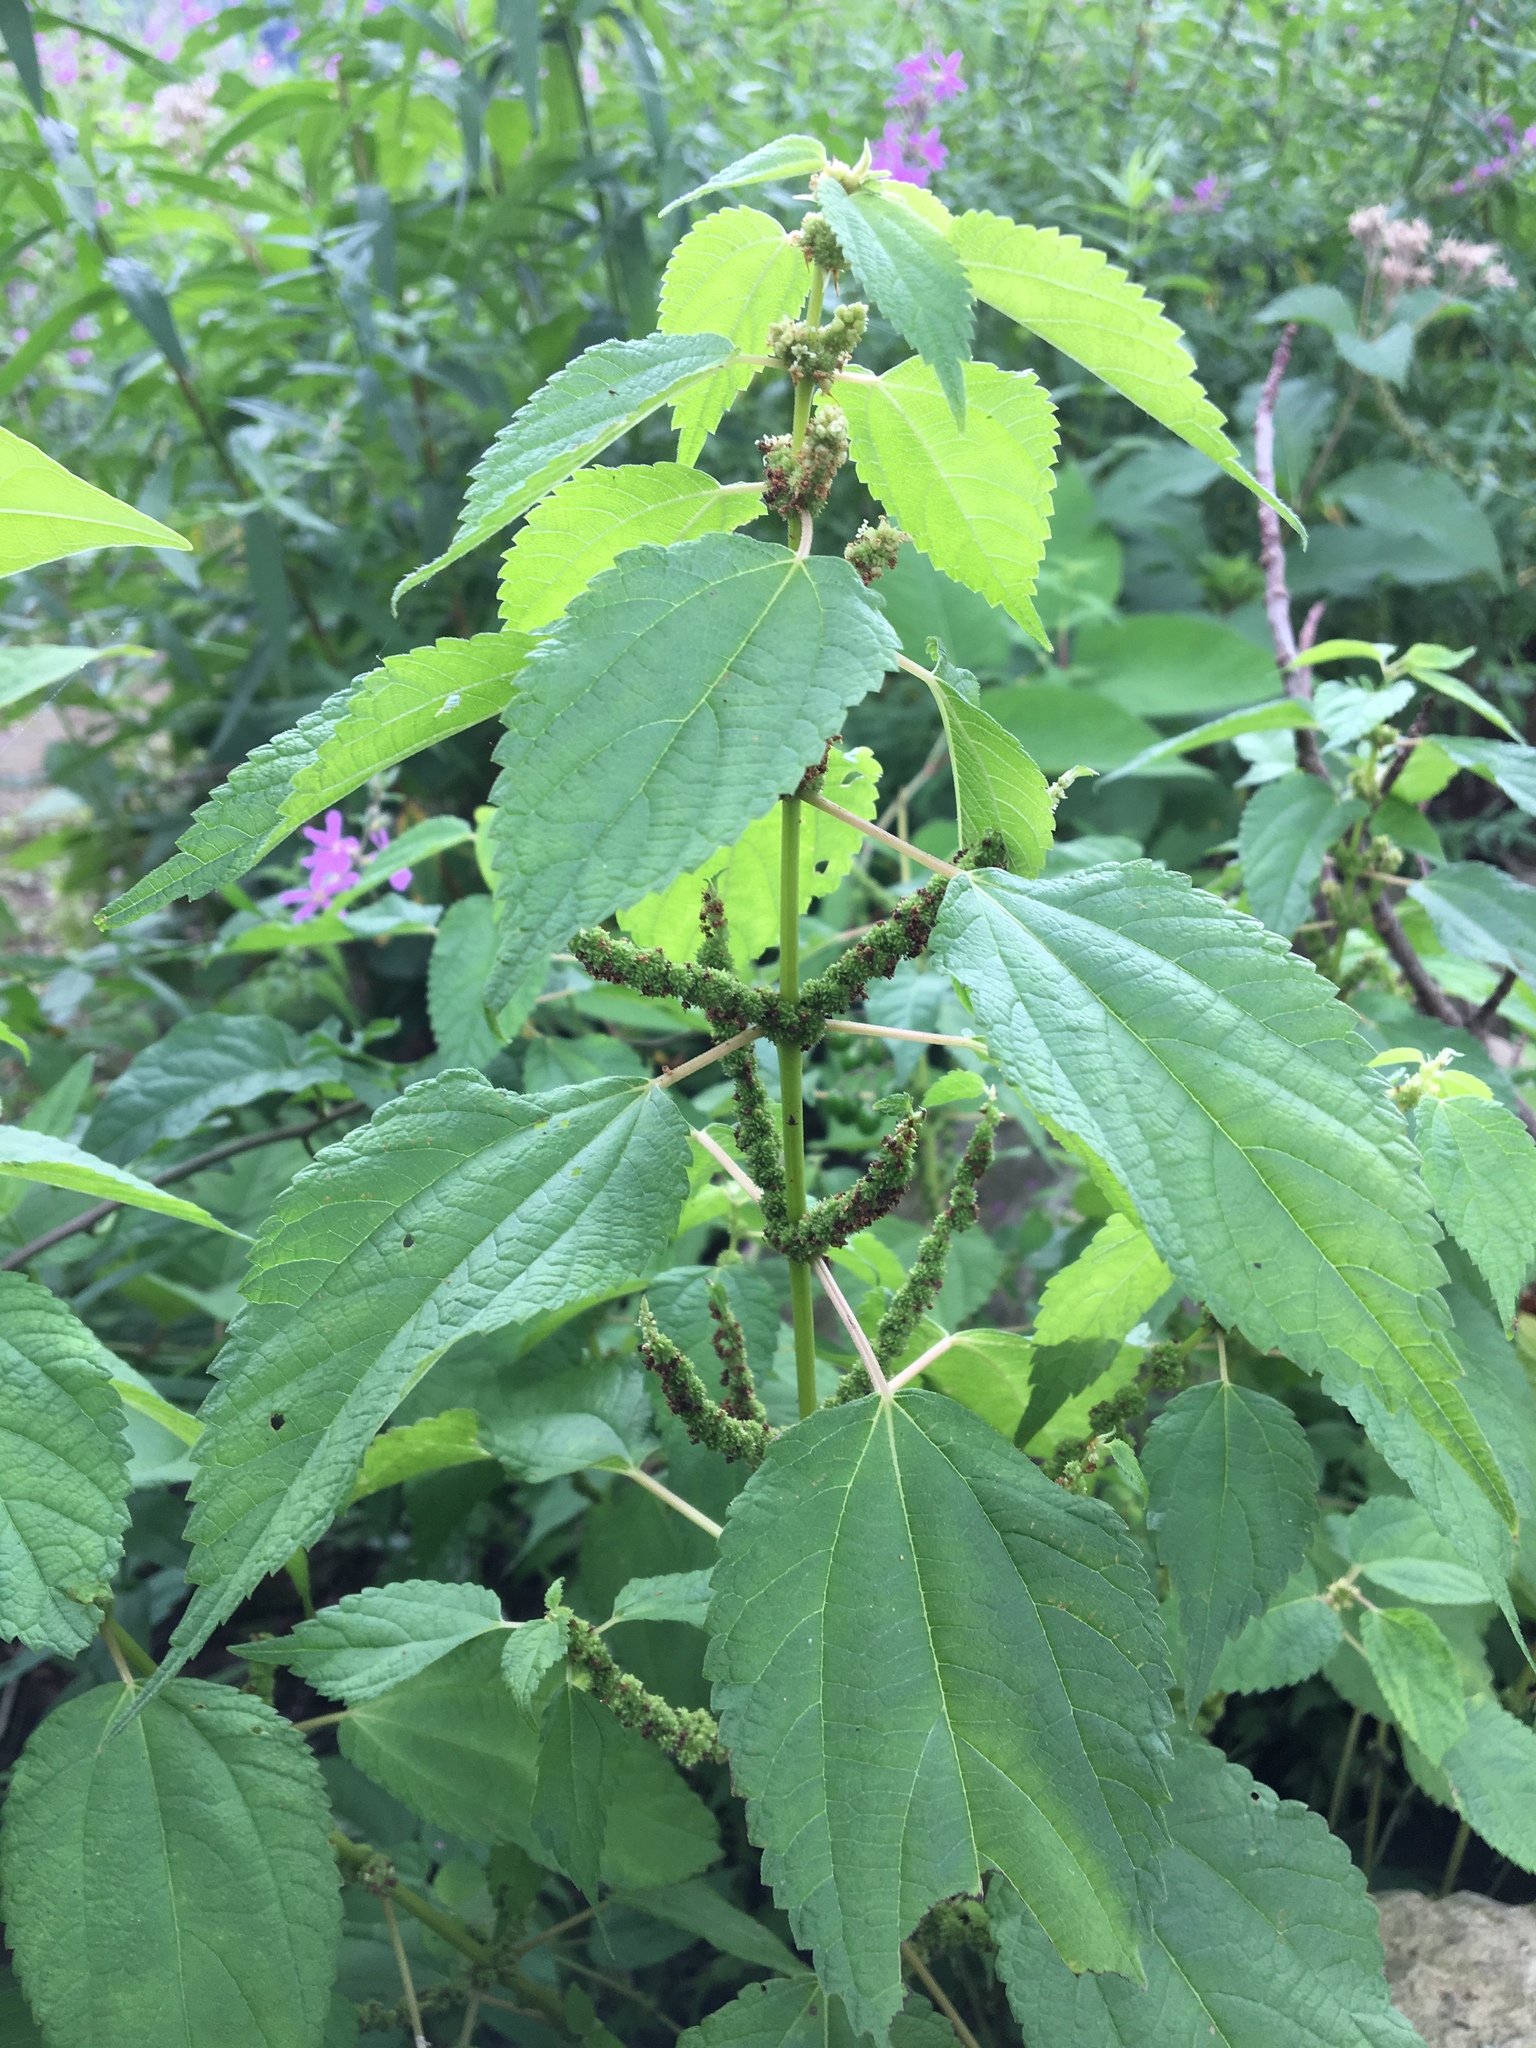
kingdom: Plantae
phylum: Tracheophyta
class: Magnoliopsida
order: Rosales
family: Urticaceae
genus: Boehmeria
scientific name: Boehmeria cylindrica
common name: Bog-hemp
